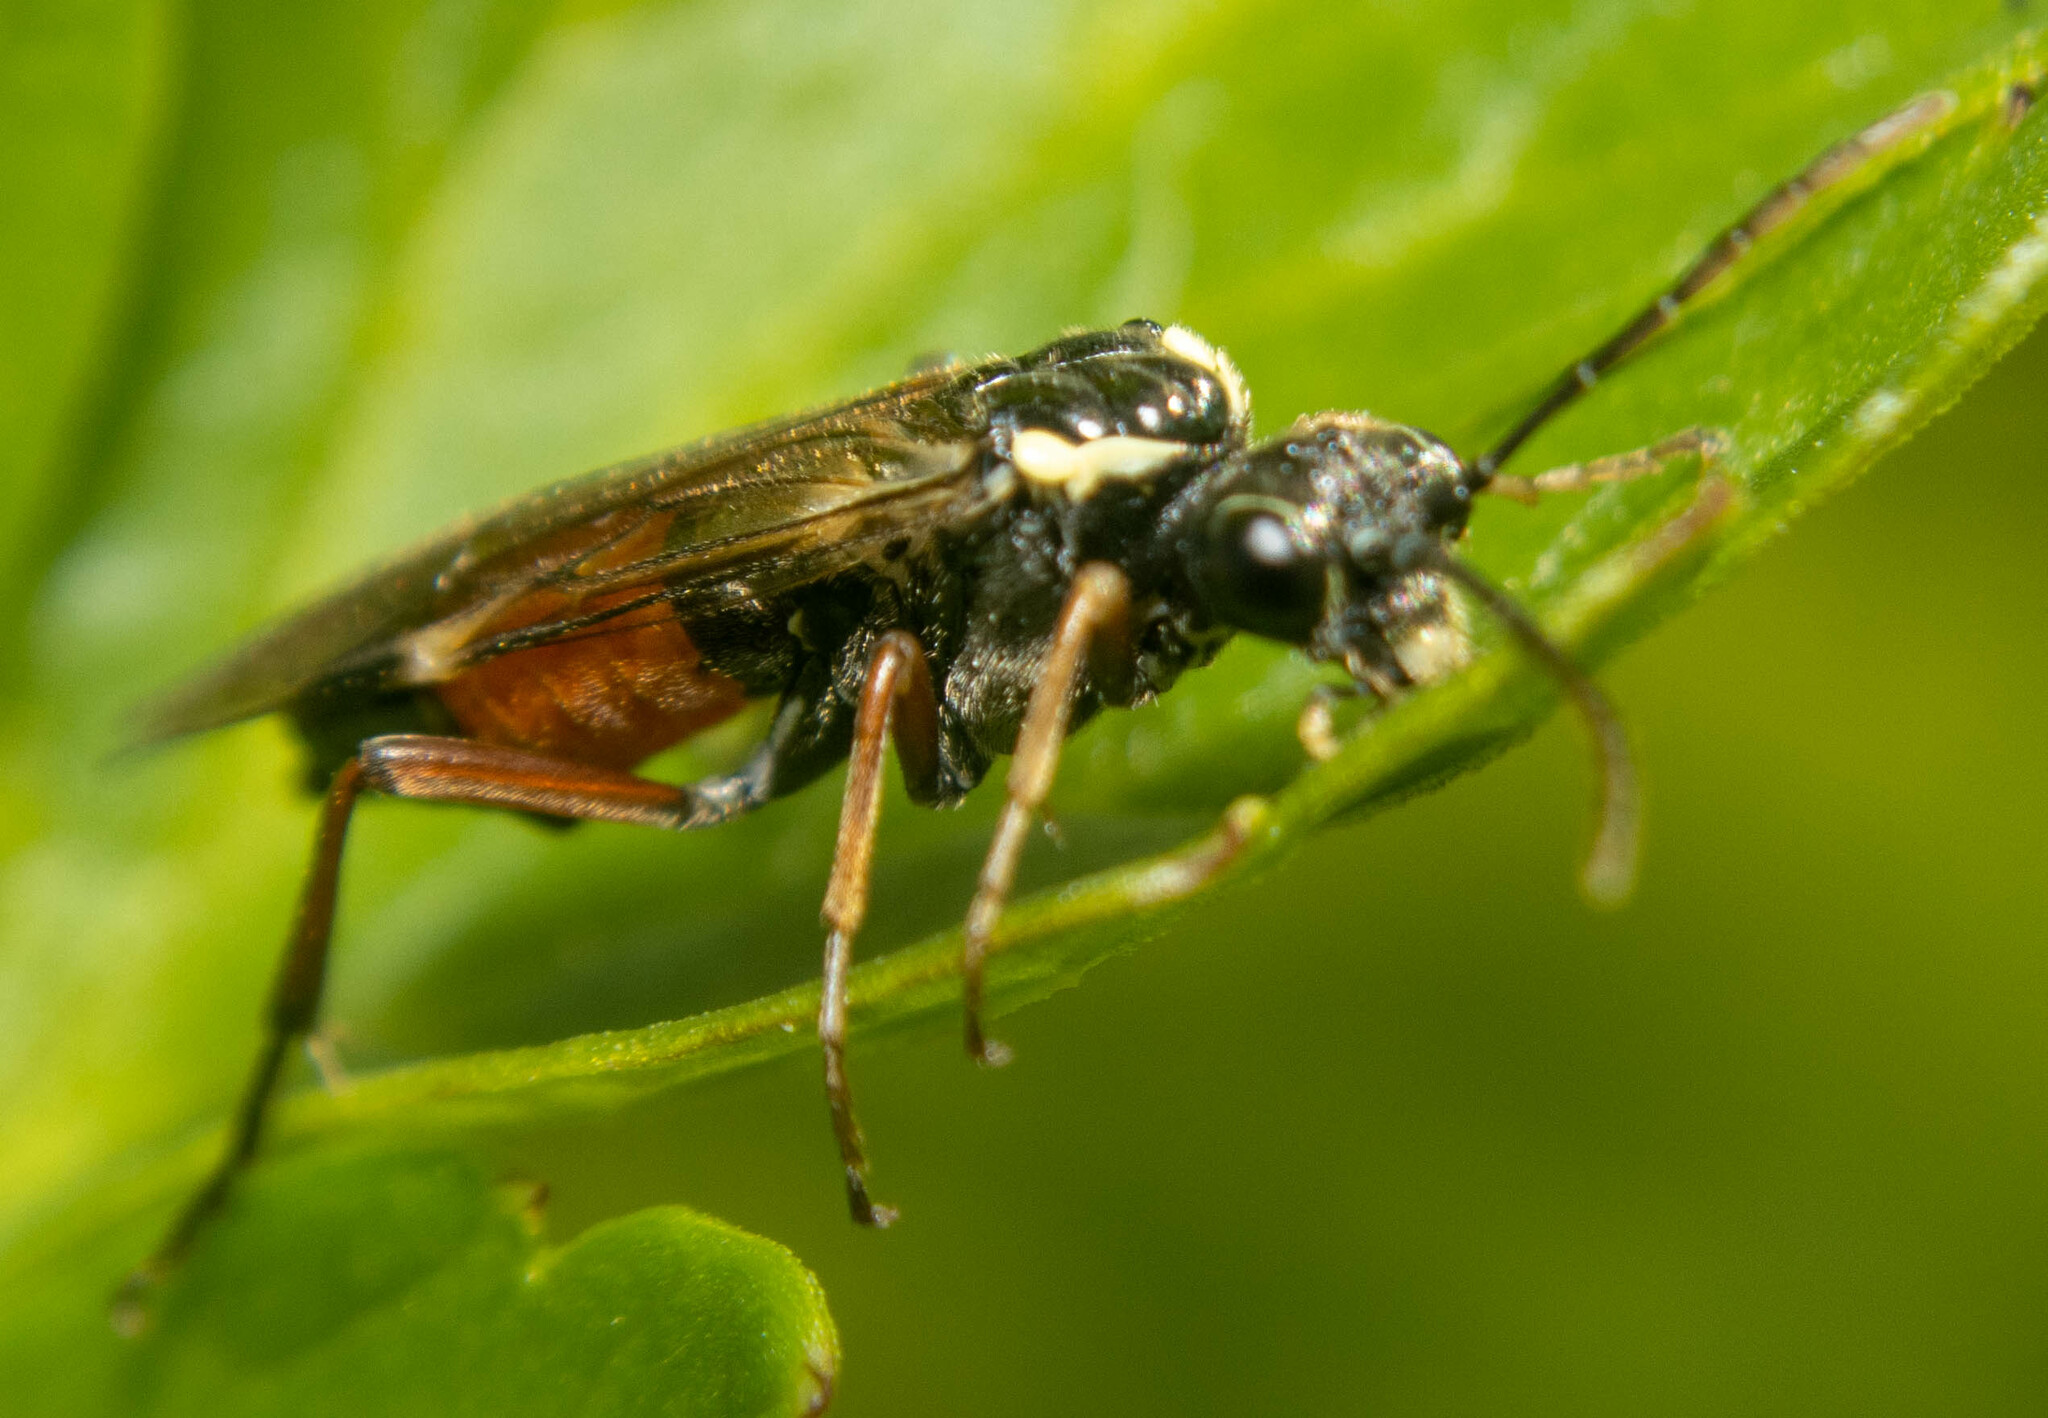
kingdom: Animalia
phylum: Arthropoda
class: Insecta
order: Hymenoptera
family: Tenthredinidae
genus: Aglaostigma
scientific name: Aglaostigma aucupariae
